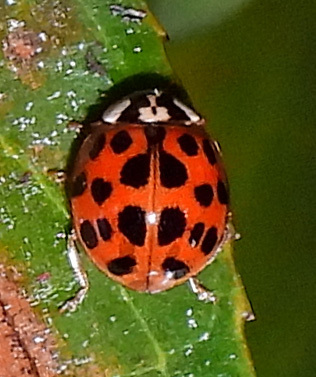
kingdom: Animalia
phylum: Arthropoda
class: Insecta
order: Coleoptera
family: Coccinellidae
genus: Harmonia
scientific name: Harmonia axyridis
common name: Harlequin ladybird
